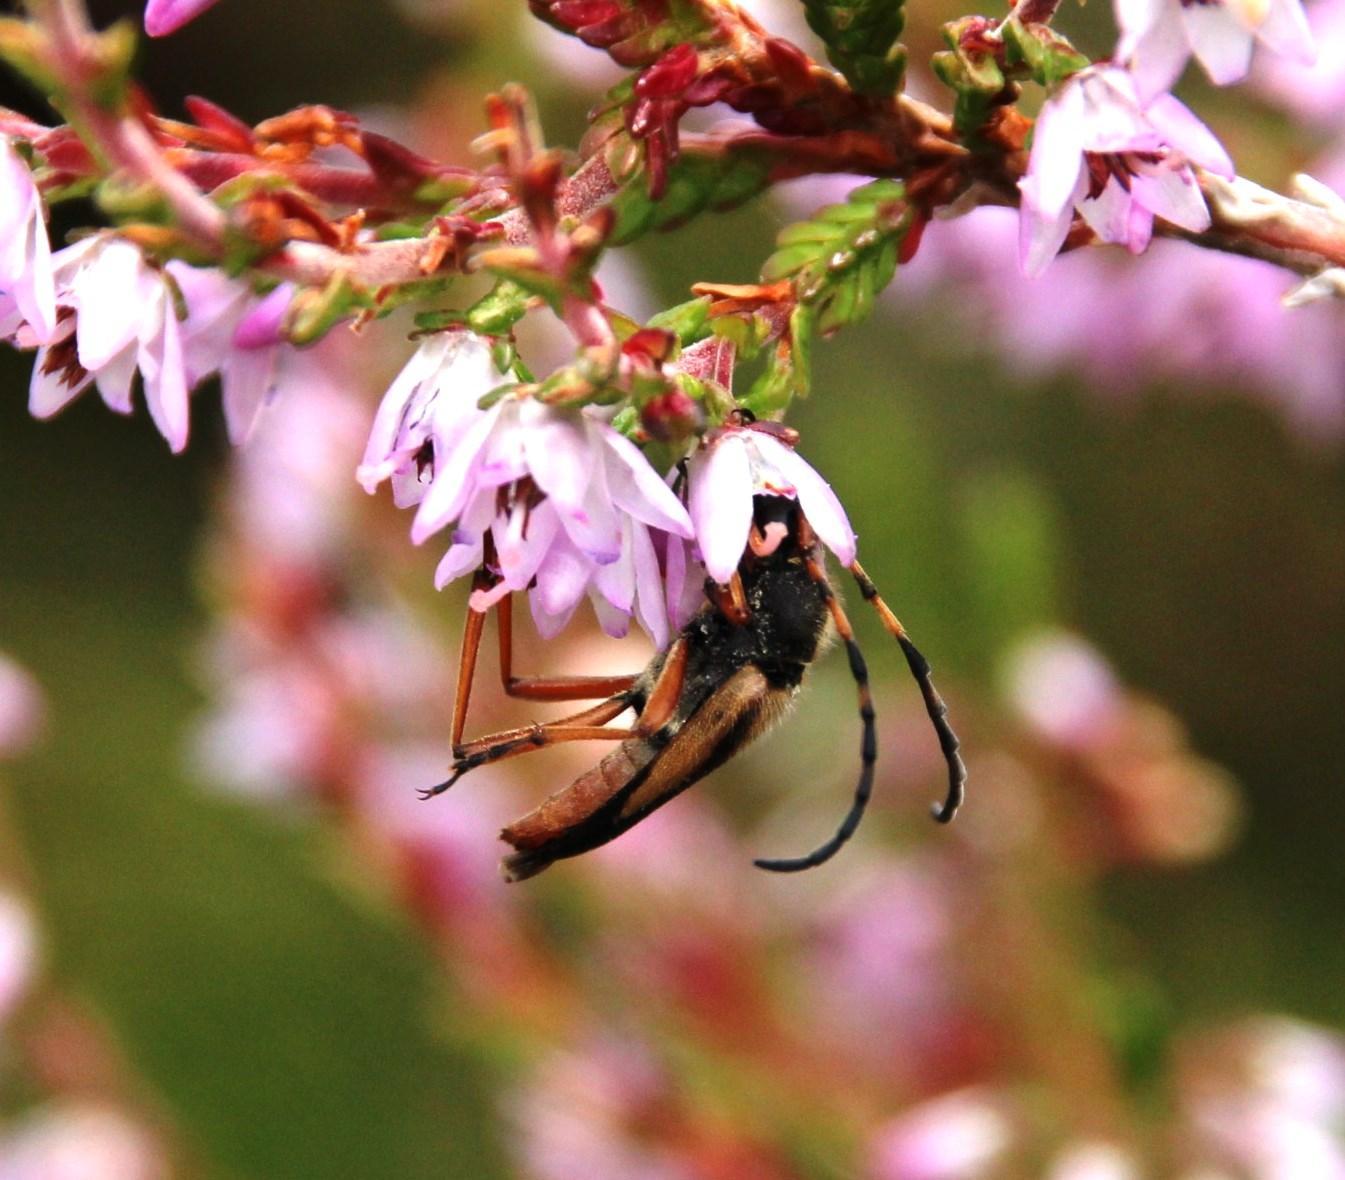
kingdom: Animalia
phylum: Arthropoda
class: Insecta
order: Coleoptera
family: Cerambycidae
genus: Stictoleptura
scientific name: Stictoleptura stragulata
